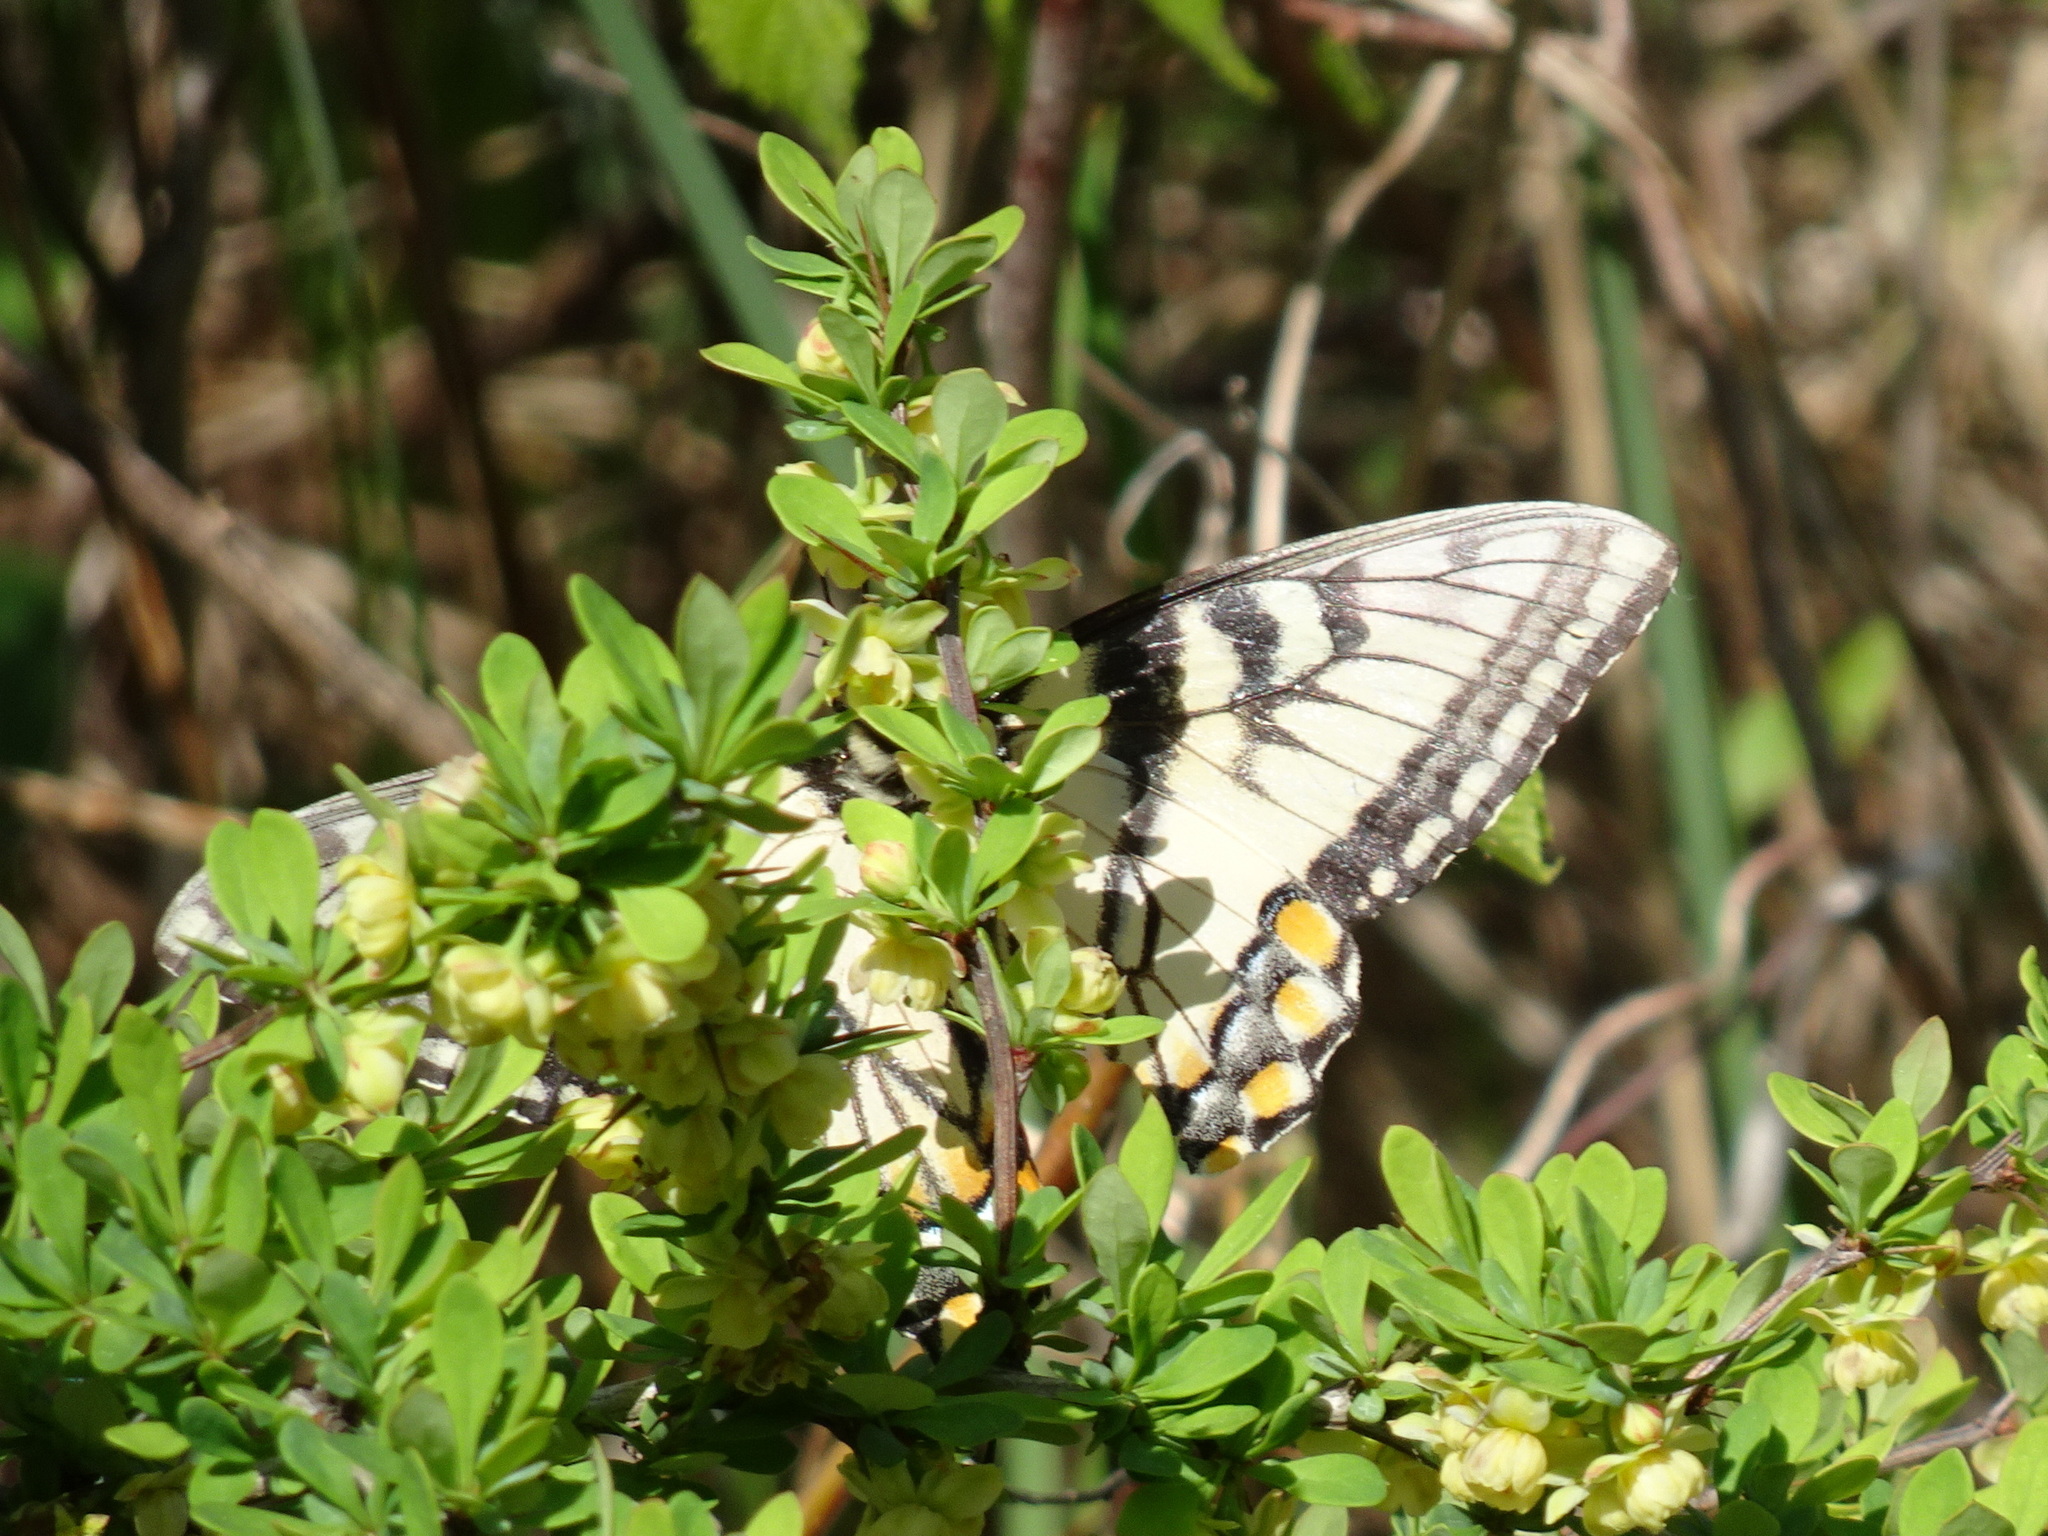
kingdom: Animalia
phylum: Arthropoda
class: Insecta
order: Lepidoptera
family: Papilionidae
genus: Papilio
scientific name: Papilio glaucus
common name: Tiger swallowtail
